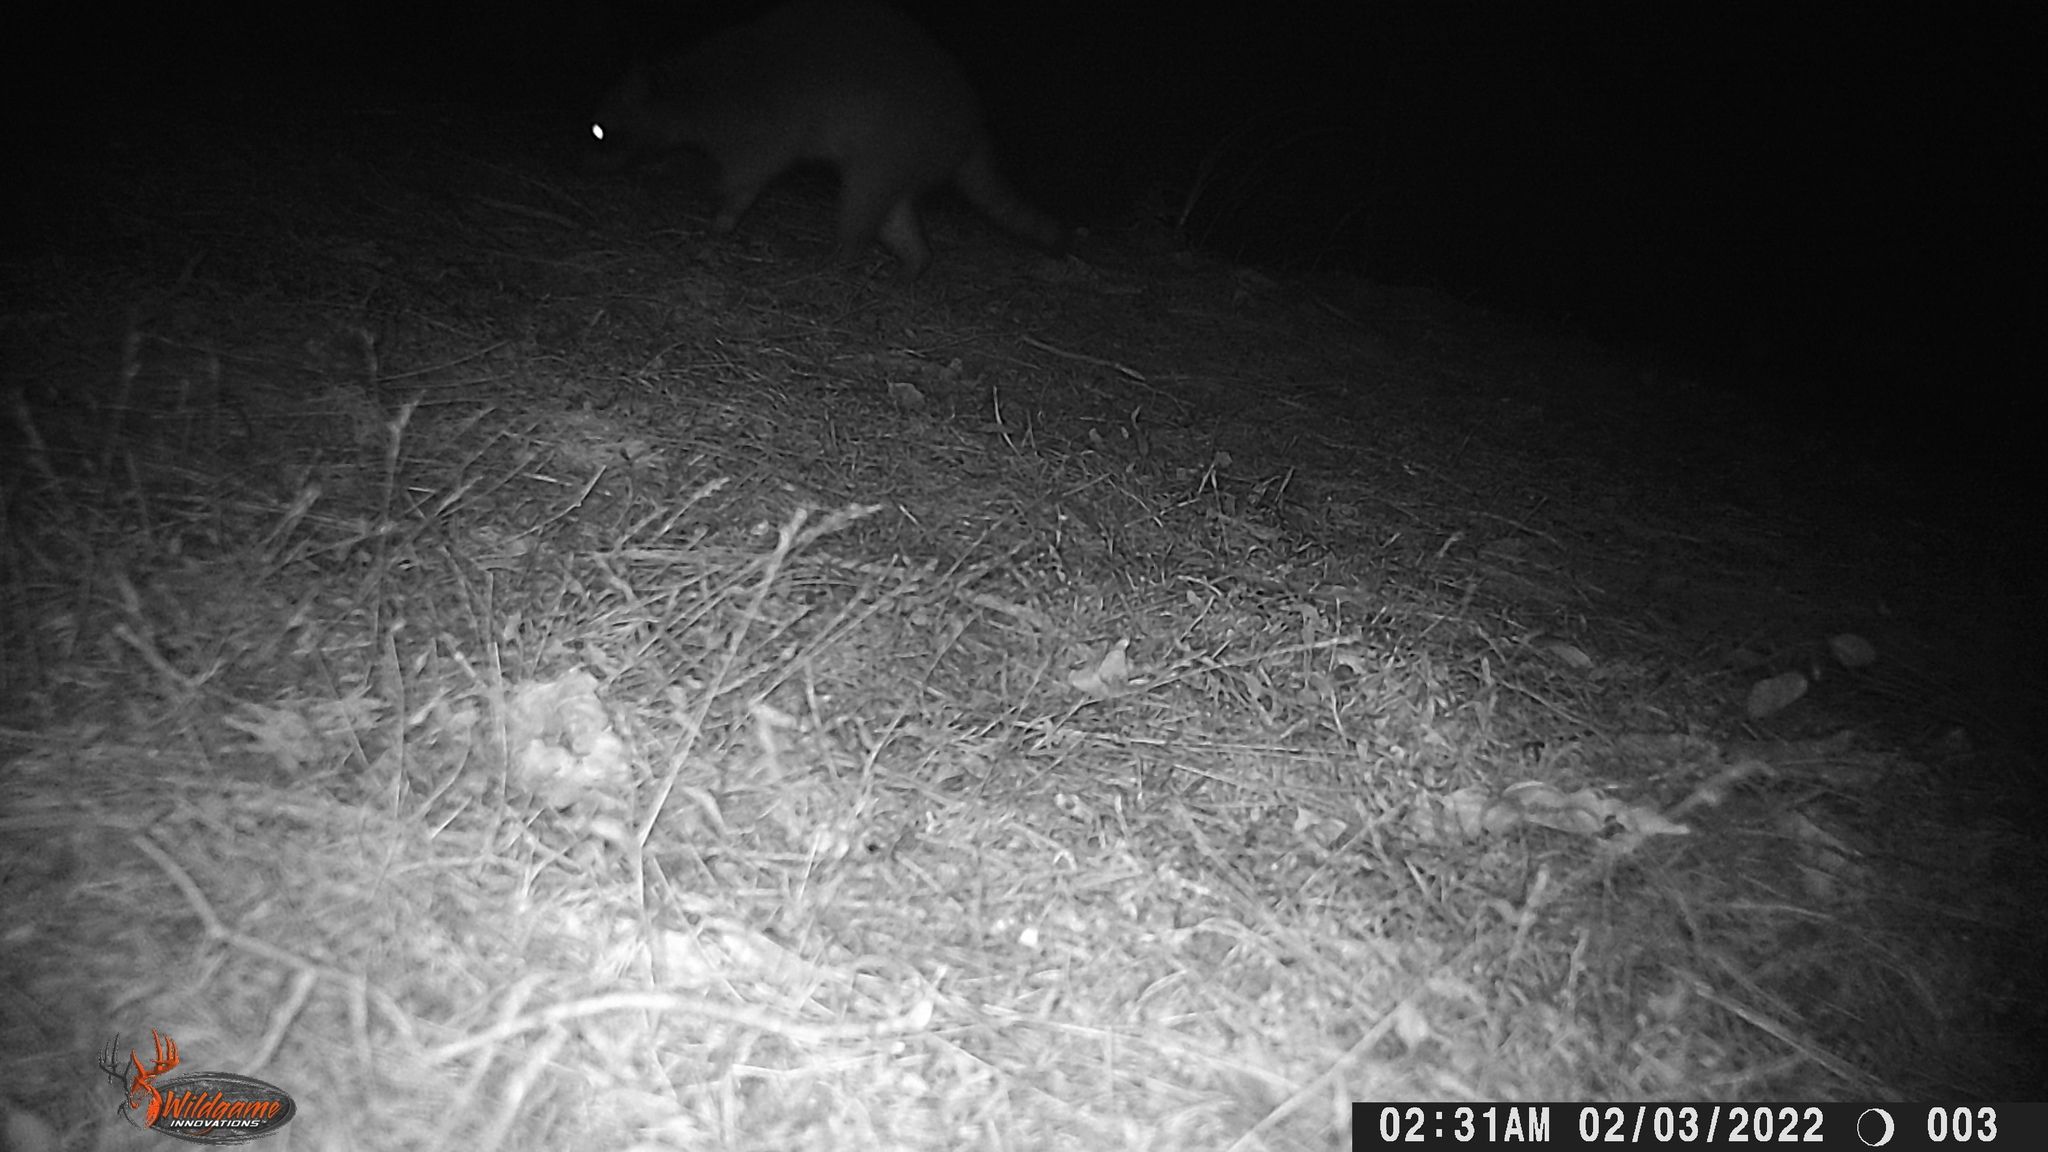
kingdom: Animalia
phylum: Chordata
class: Mammalia
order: Carnivora
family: Procyonidae
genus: Procyon
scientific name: Procyon lotor
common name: Raccoon
